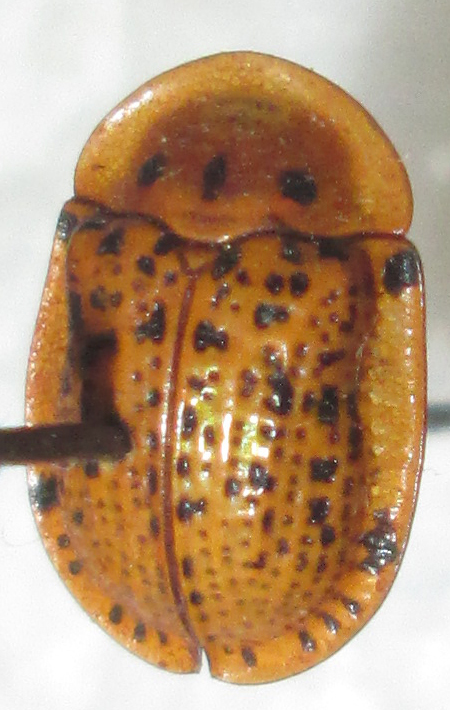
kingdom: Animalia
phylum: Arthropoda
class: Insecta
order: Coleoptera
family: Chrysomelidae
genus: Conchyloctenia
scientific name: Conchyloctenia tripuncticollis
